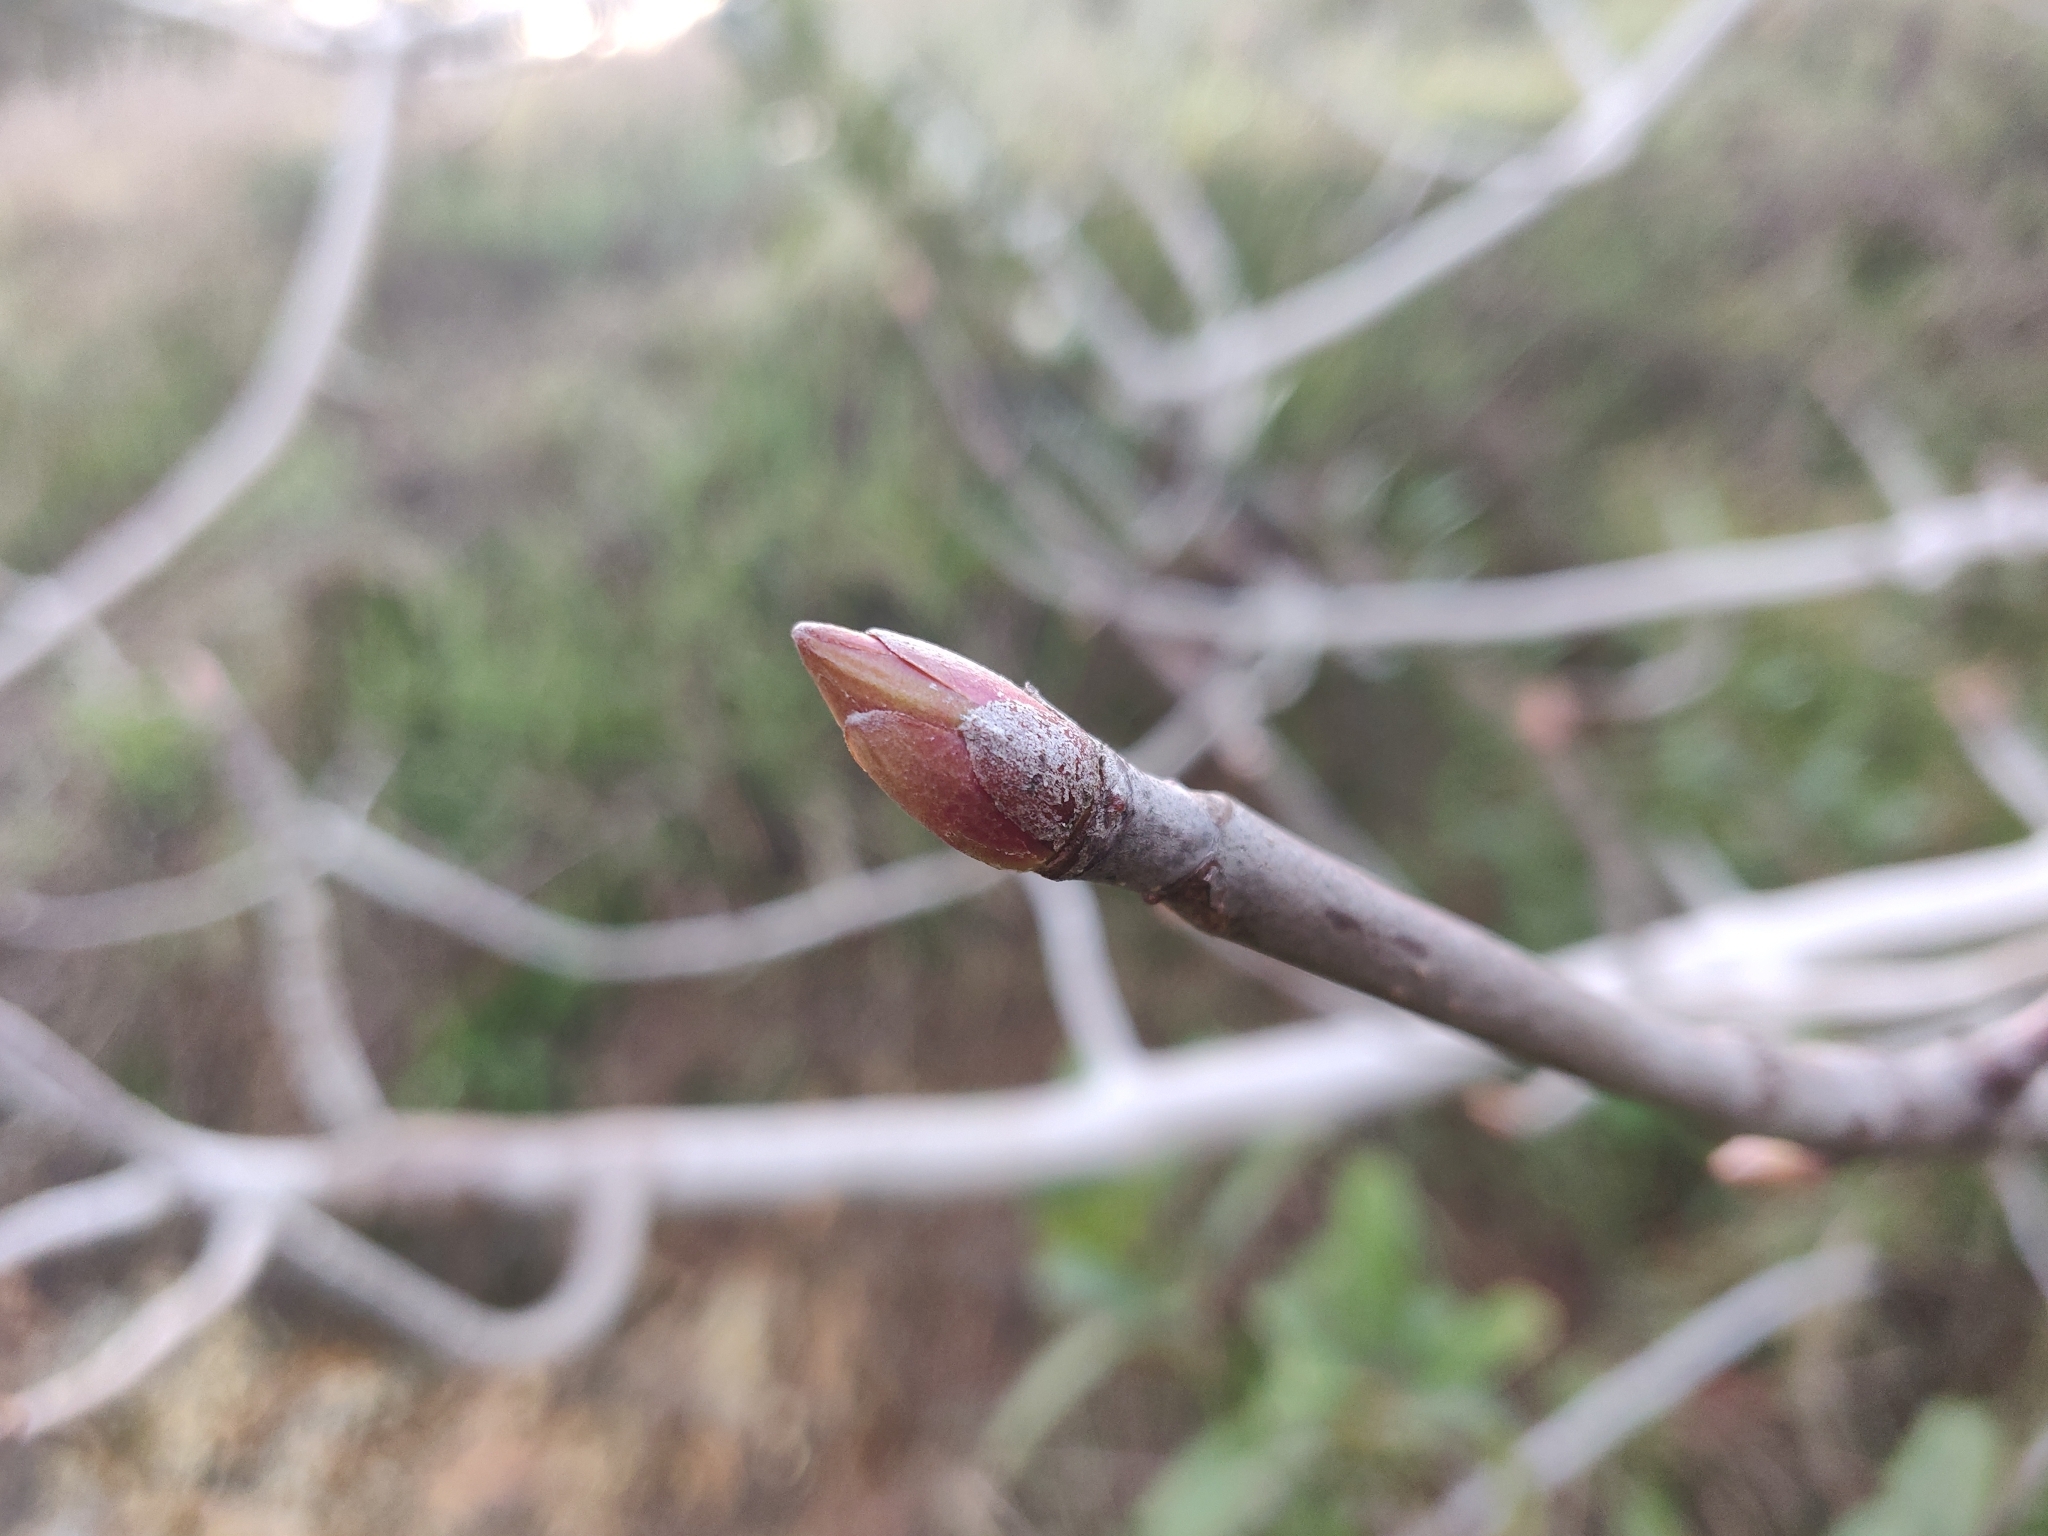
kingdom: Plantae
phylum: Tracheophyta
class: Magnoliopsida
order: Sapindales
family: Sapindaceae
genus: Aesculus
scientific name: Aesculus californica
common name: California buckeye
